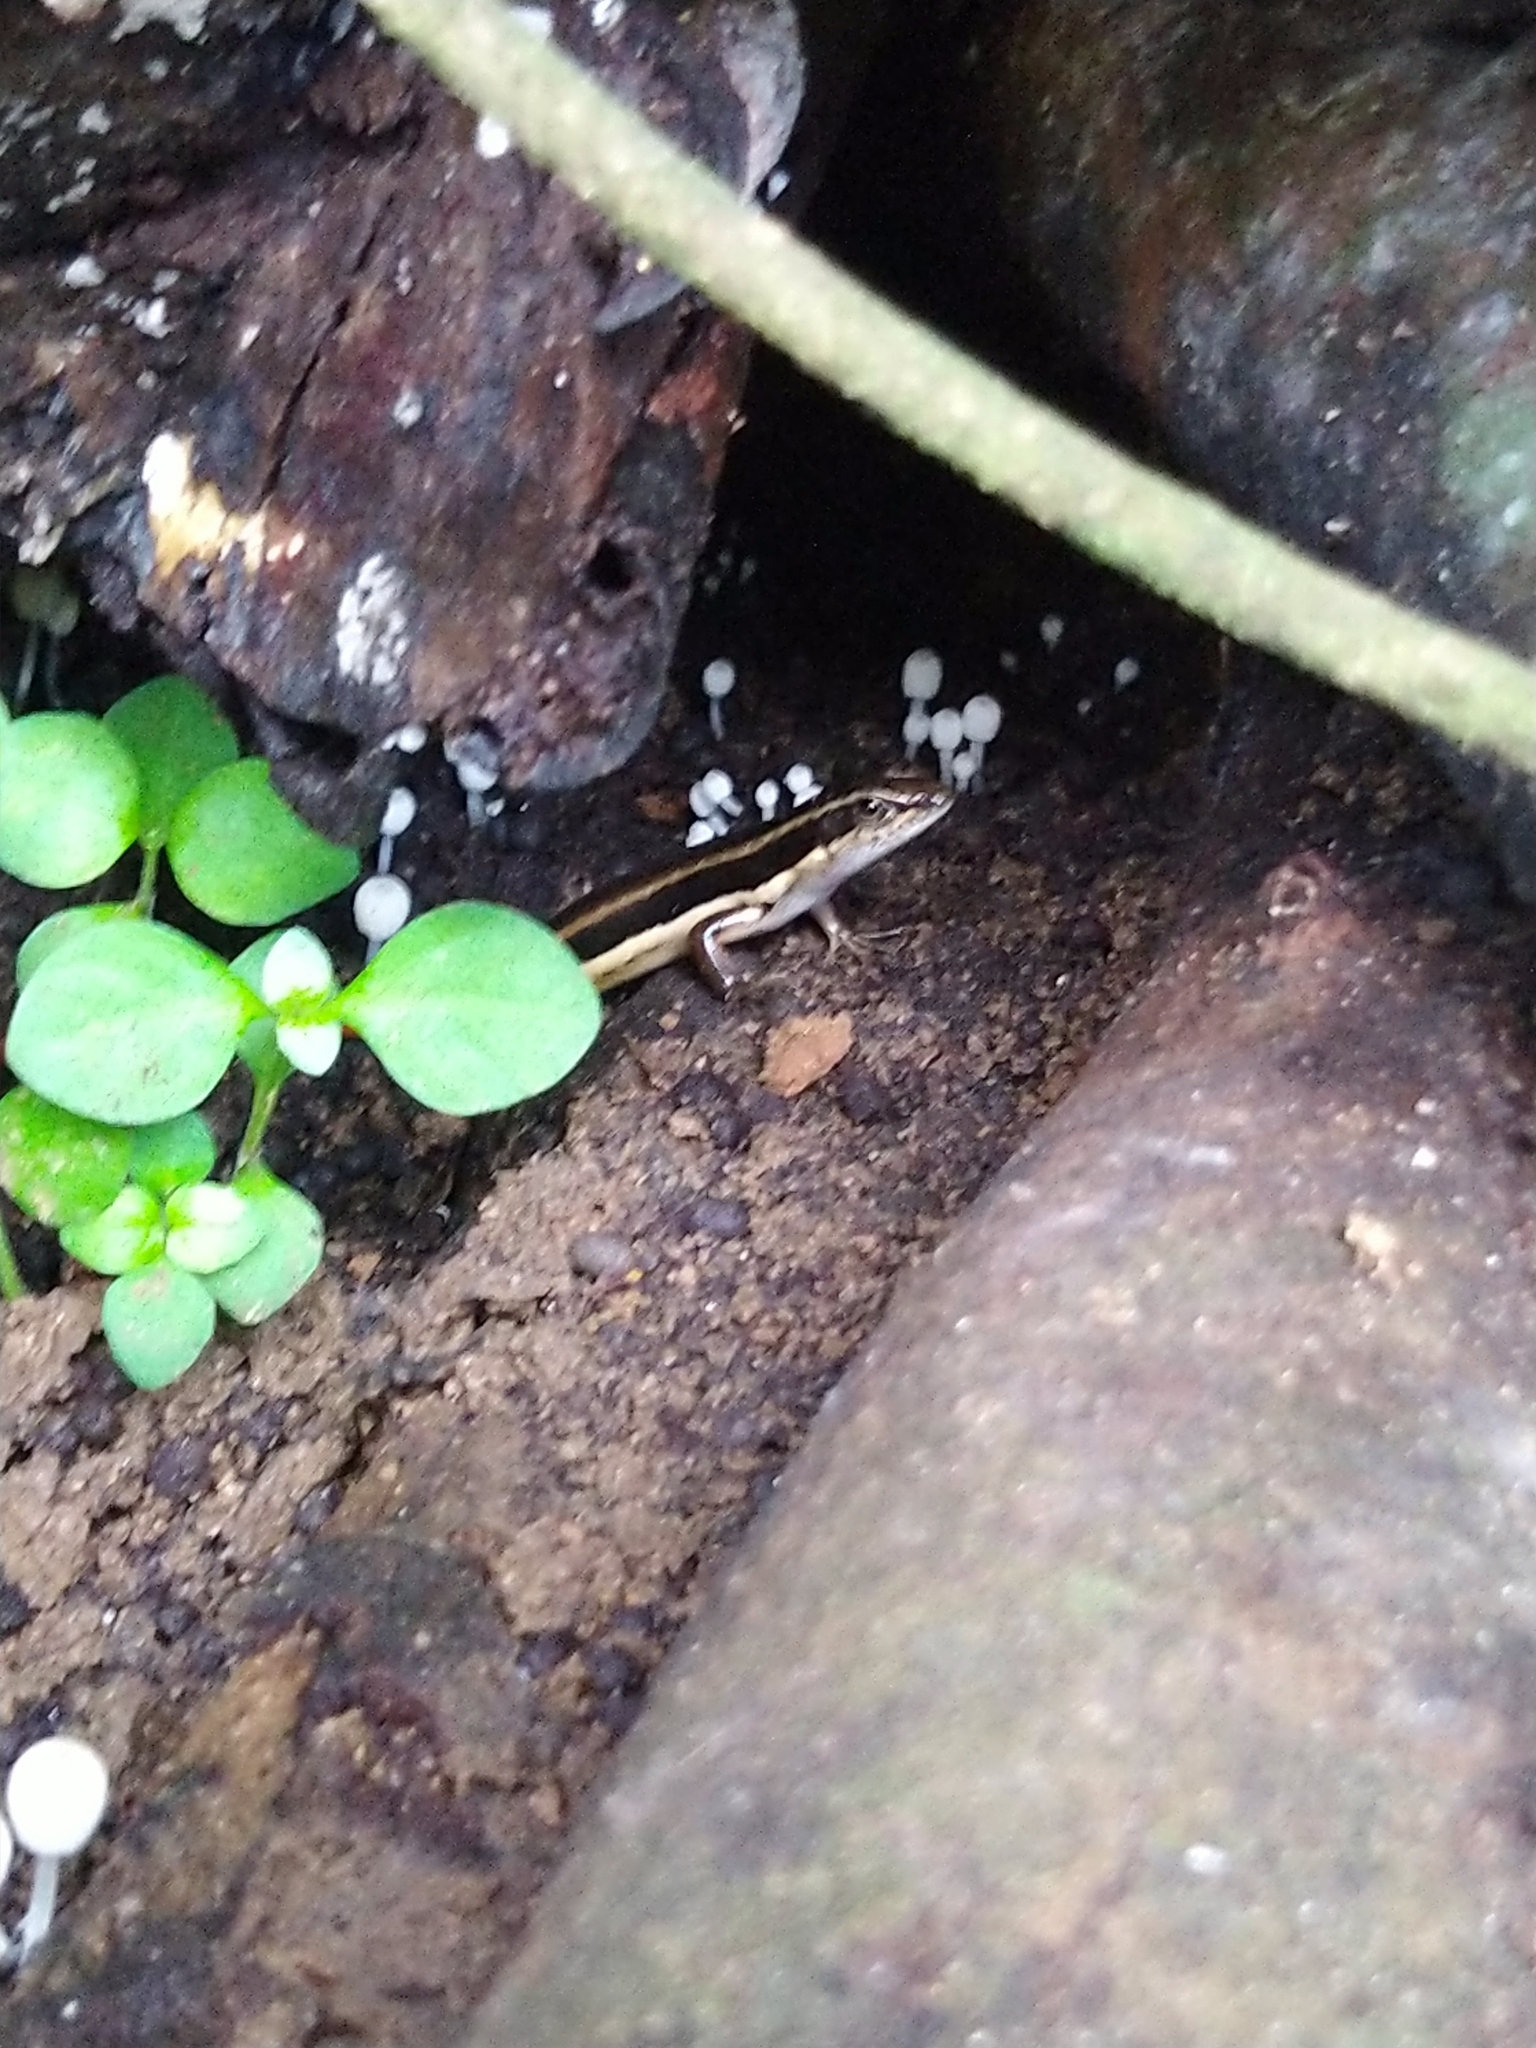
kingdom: Animalia
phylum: Chordata
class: Squamata
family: Scincidae
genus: Sphenomorphus
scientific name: Sphenomorphus dussumieri
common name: Dussumier's forest skink
